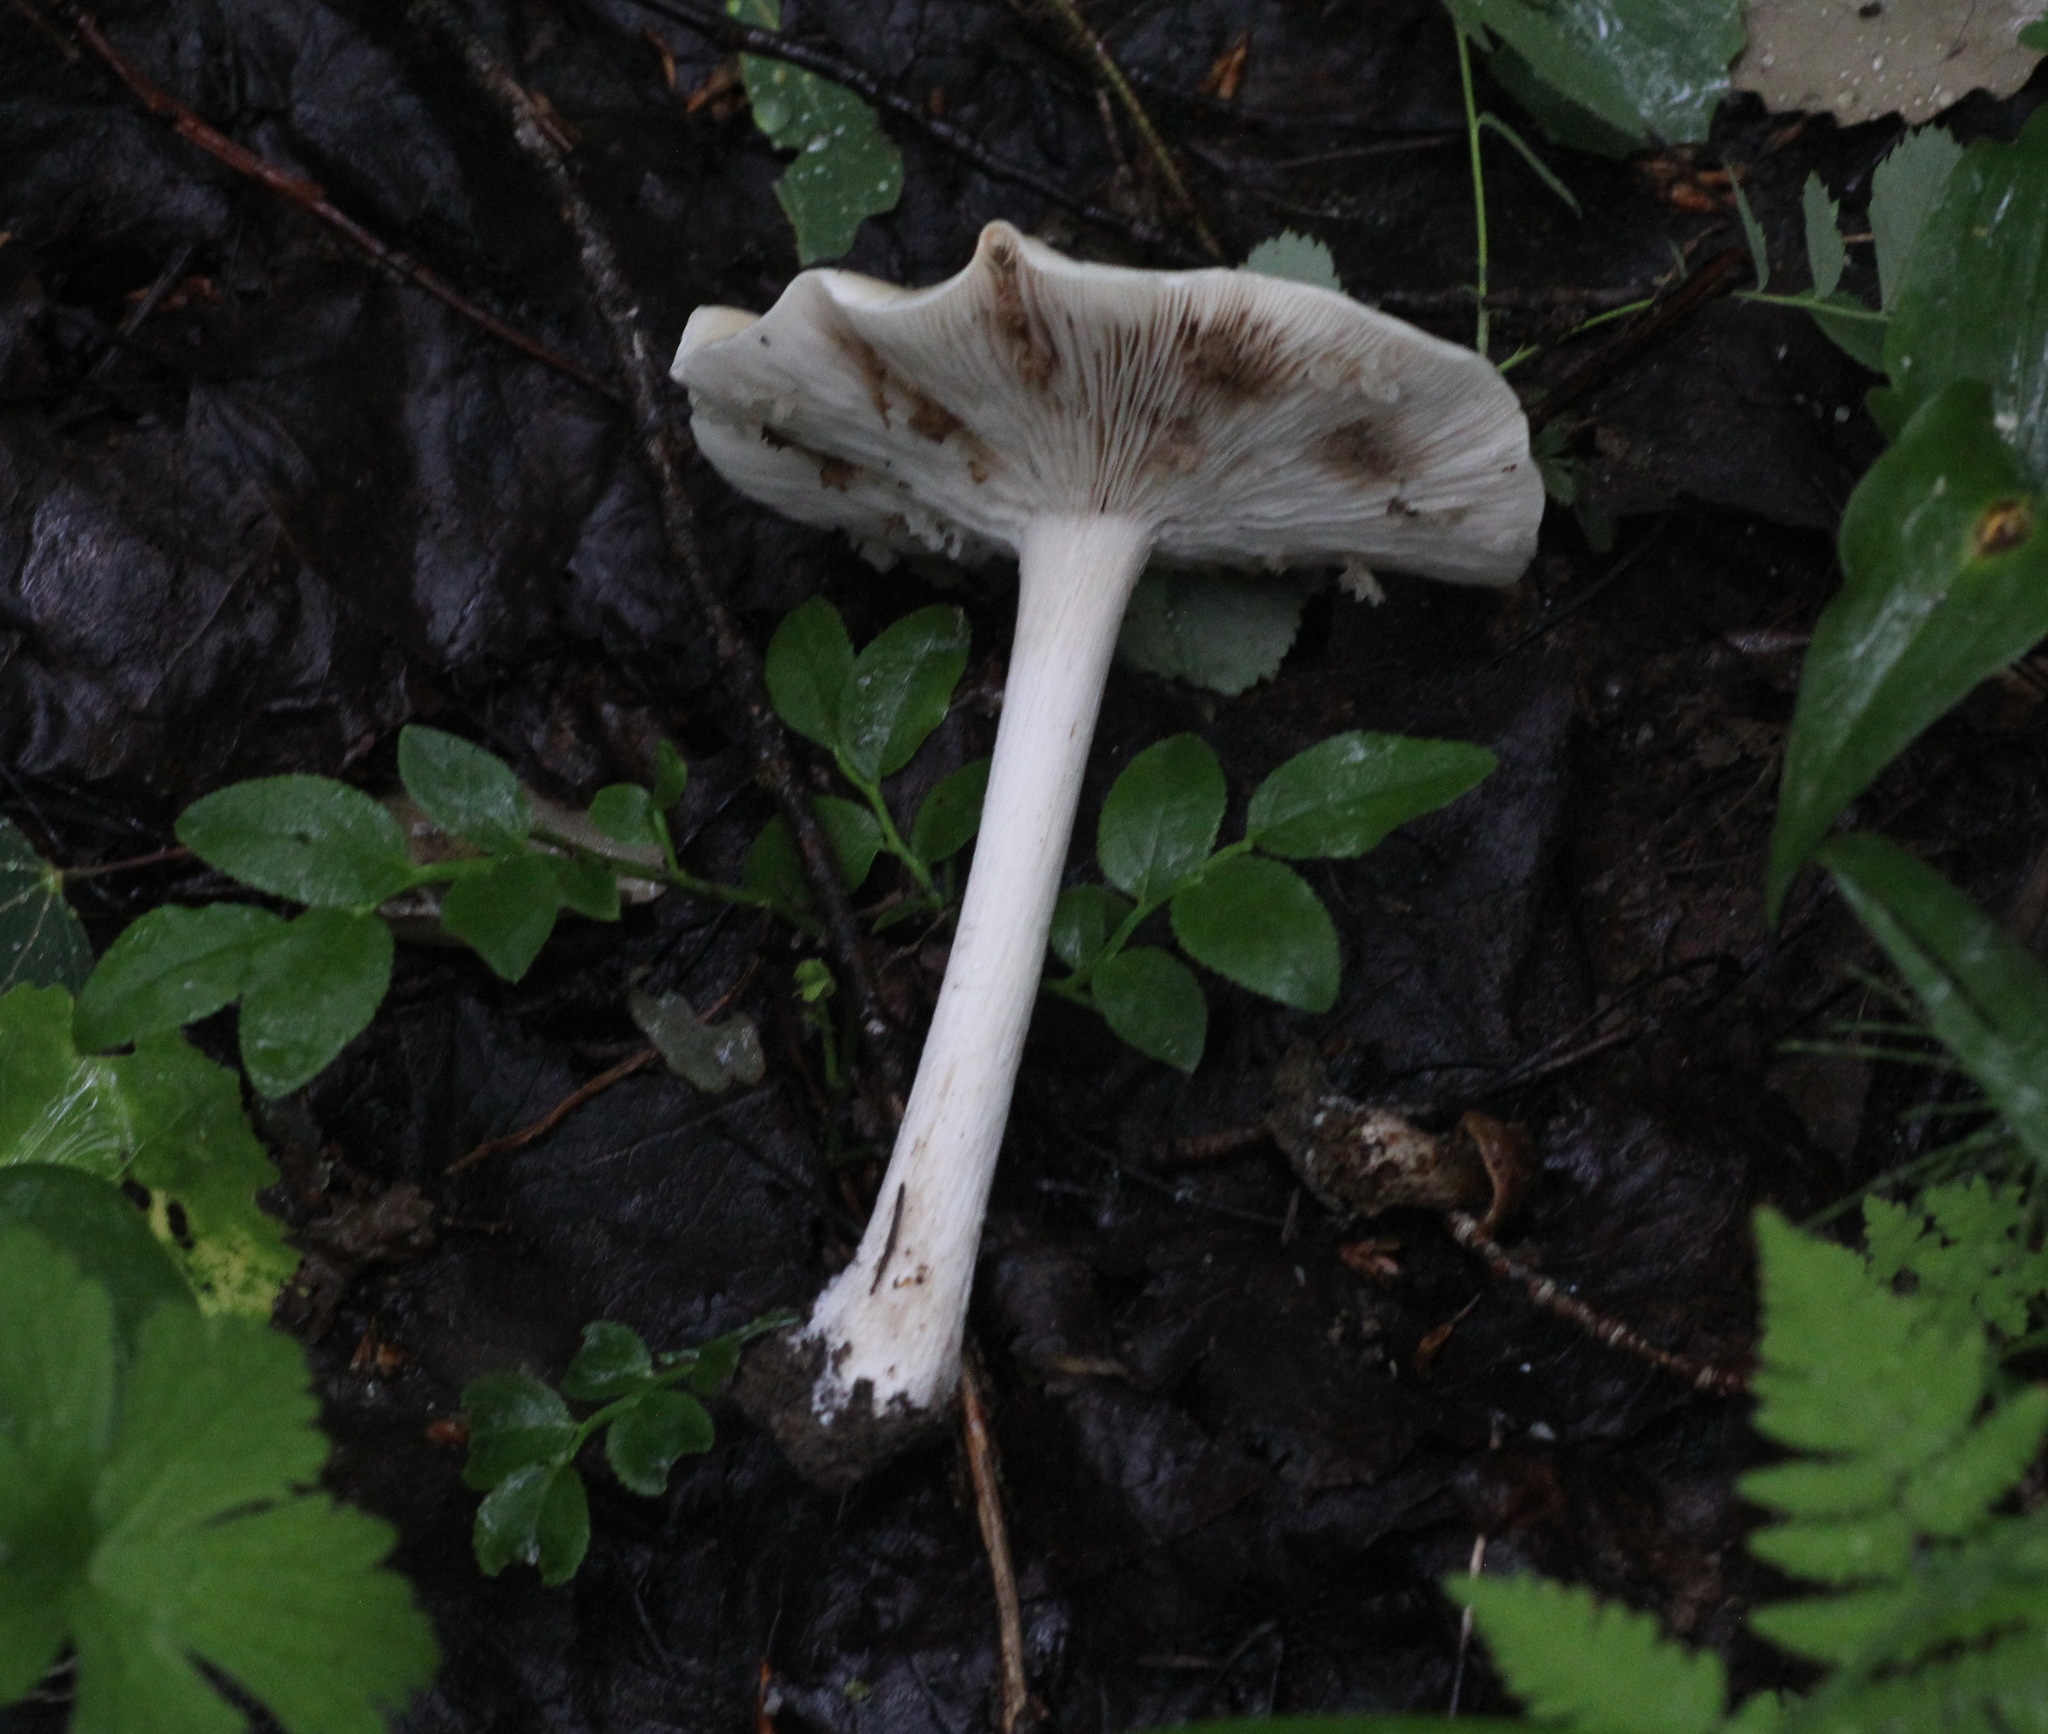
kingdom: Fungi
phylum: Basidiomycota
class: Agaricomycetes
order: Agaricales
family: Tricholomataceae
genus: Melanoleuca
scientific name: Melanoleuca strictipes
